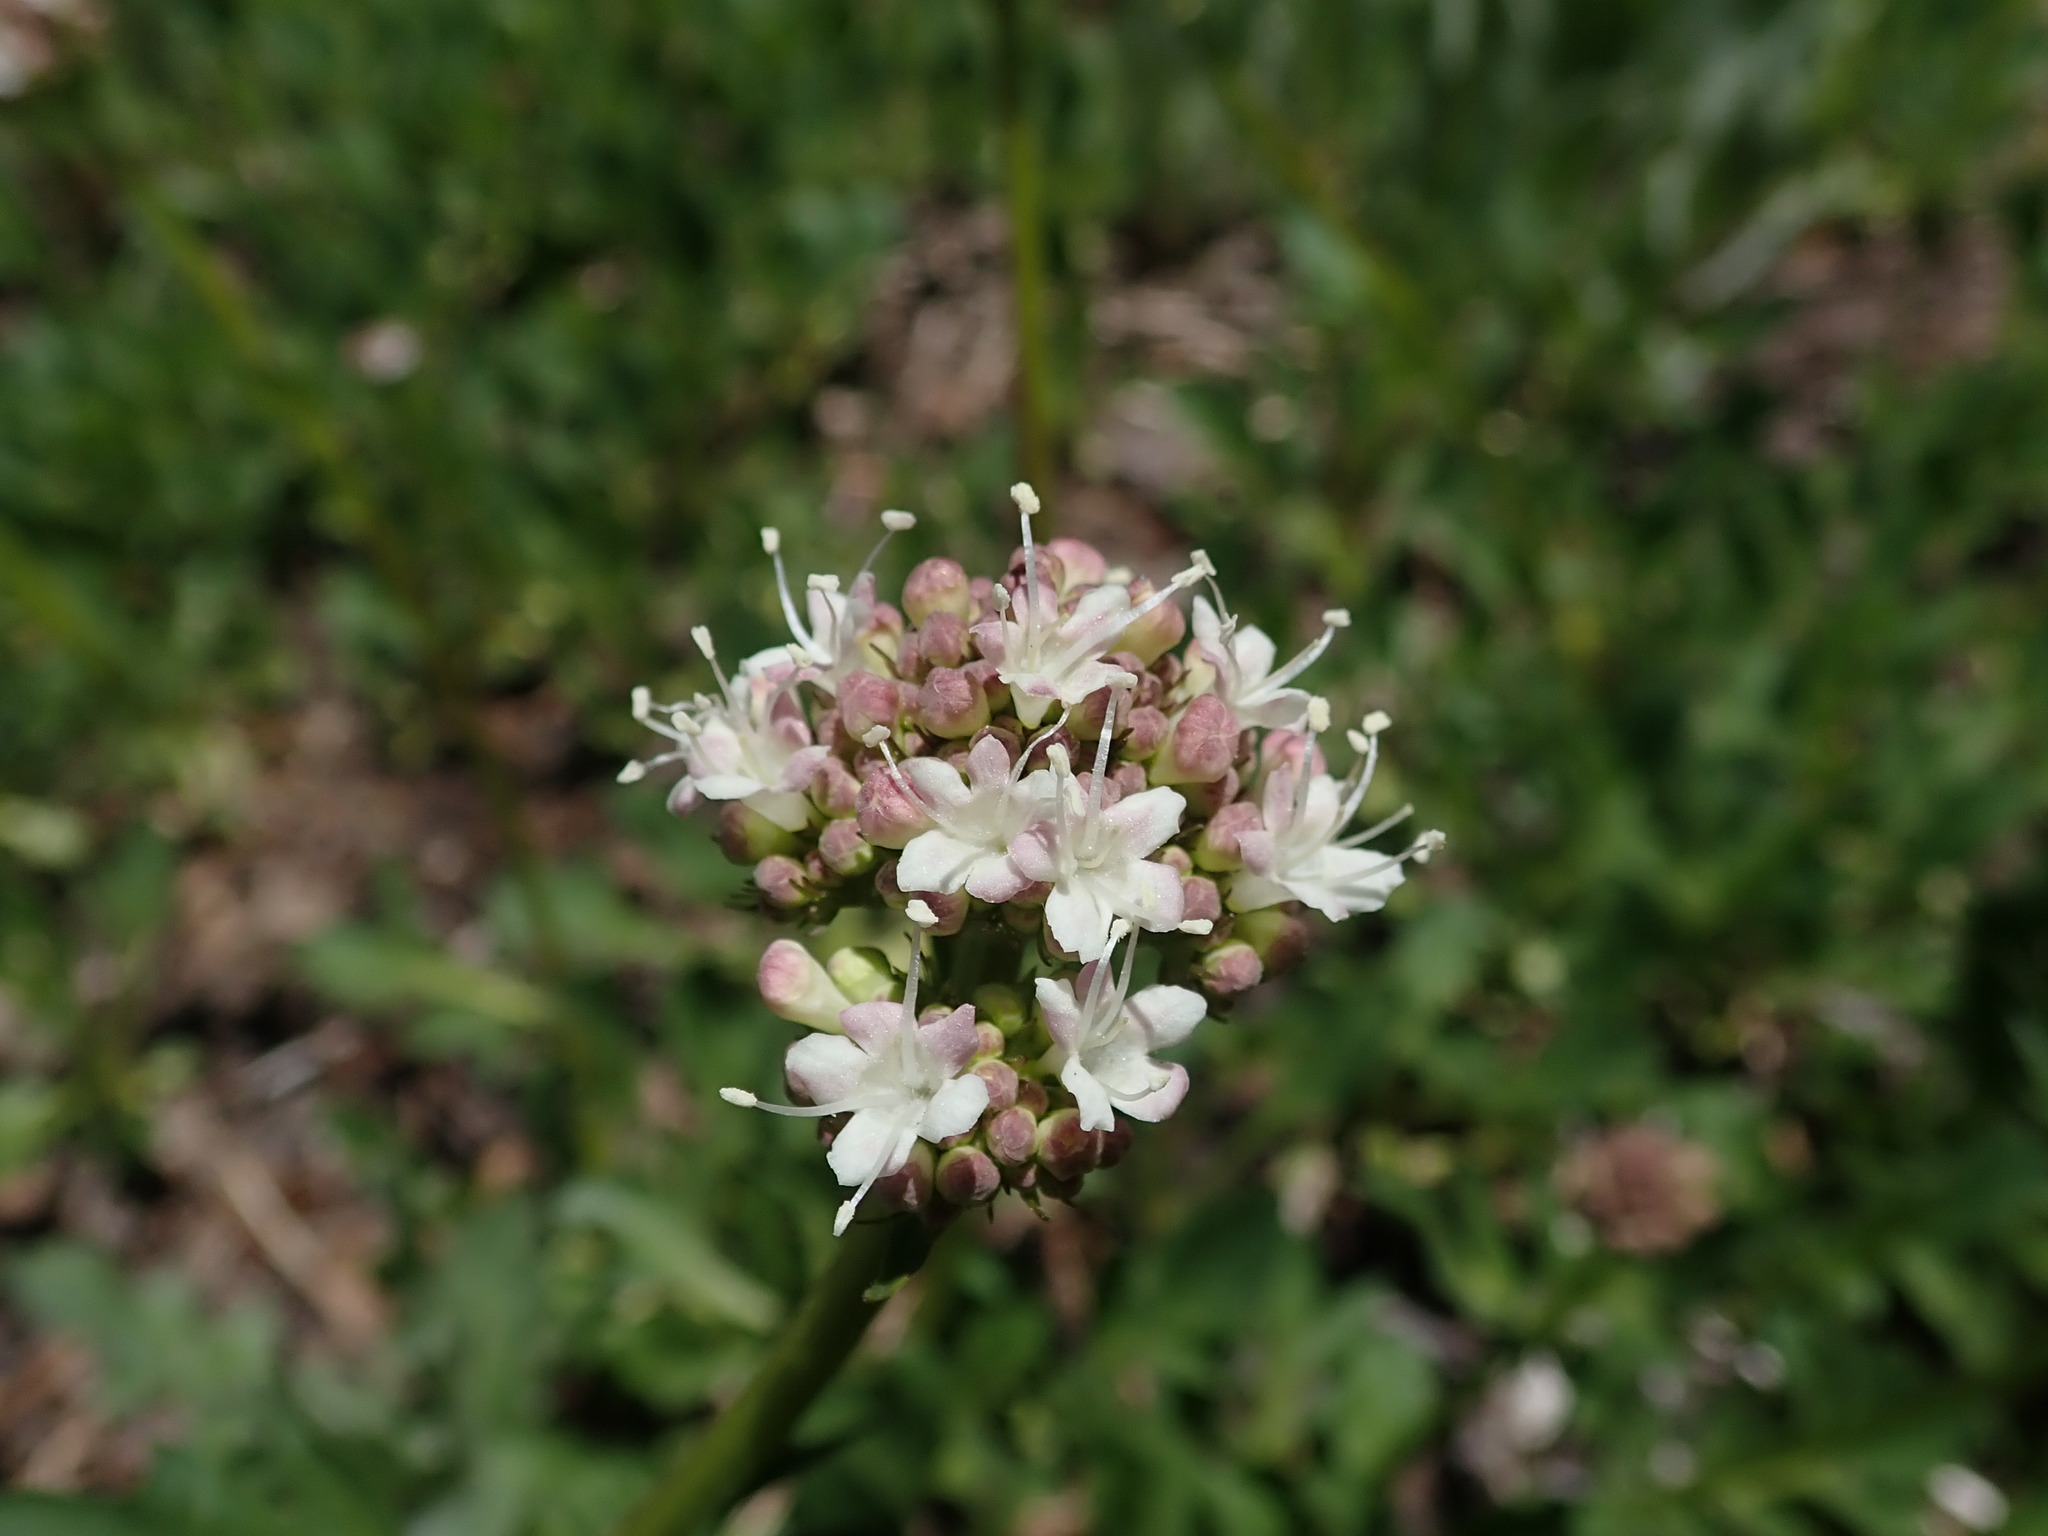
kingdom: Plantae
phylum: Tracheophyta
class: Magnoliopsida
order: Dipsacales
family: Caprifoliaceae
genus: Valeriana
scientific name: Valeriana californica
